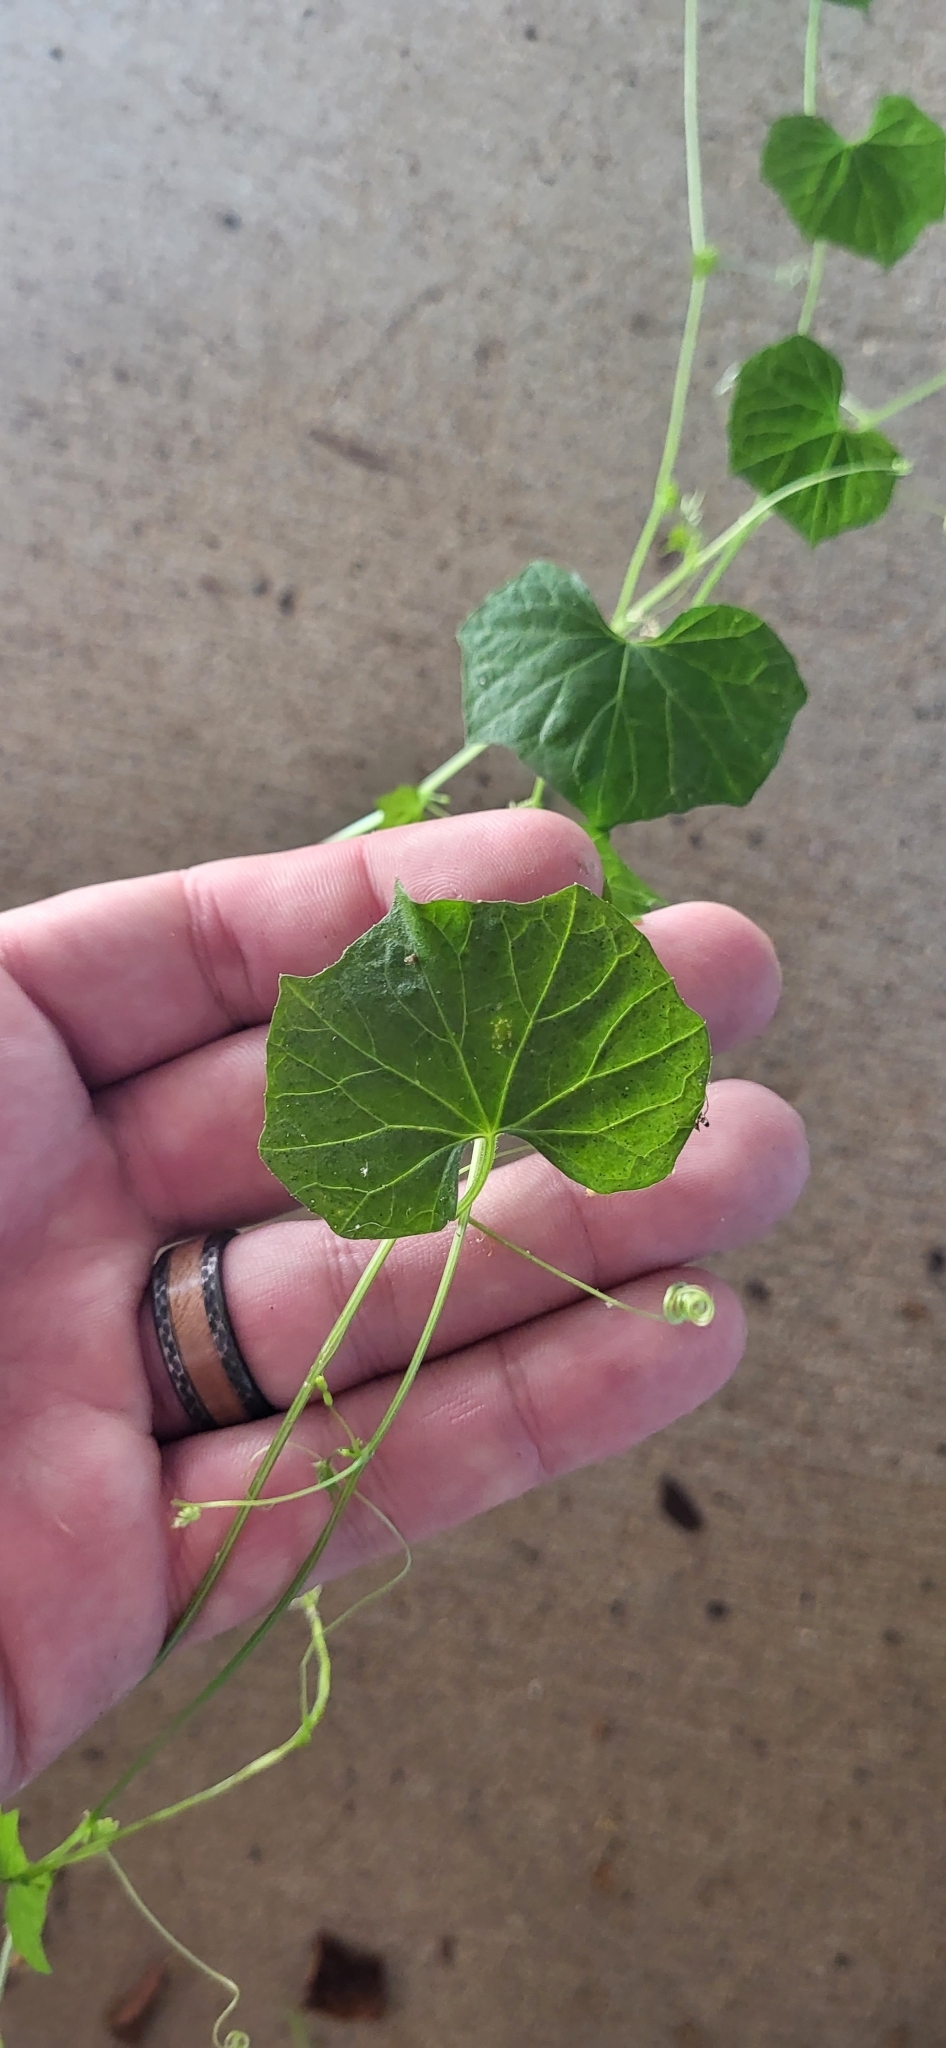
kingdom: Plantae
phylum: Tracheophyta
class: Magnoliopsida
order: Cucurbitales
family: Cucurbitaceae
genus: Melothria
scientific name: Melothria pendula
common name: Creeping-cucumber
